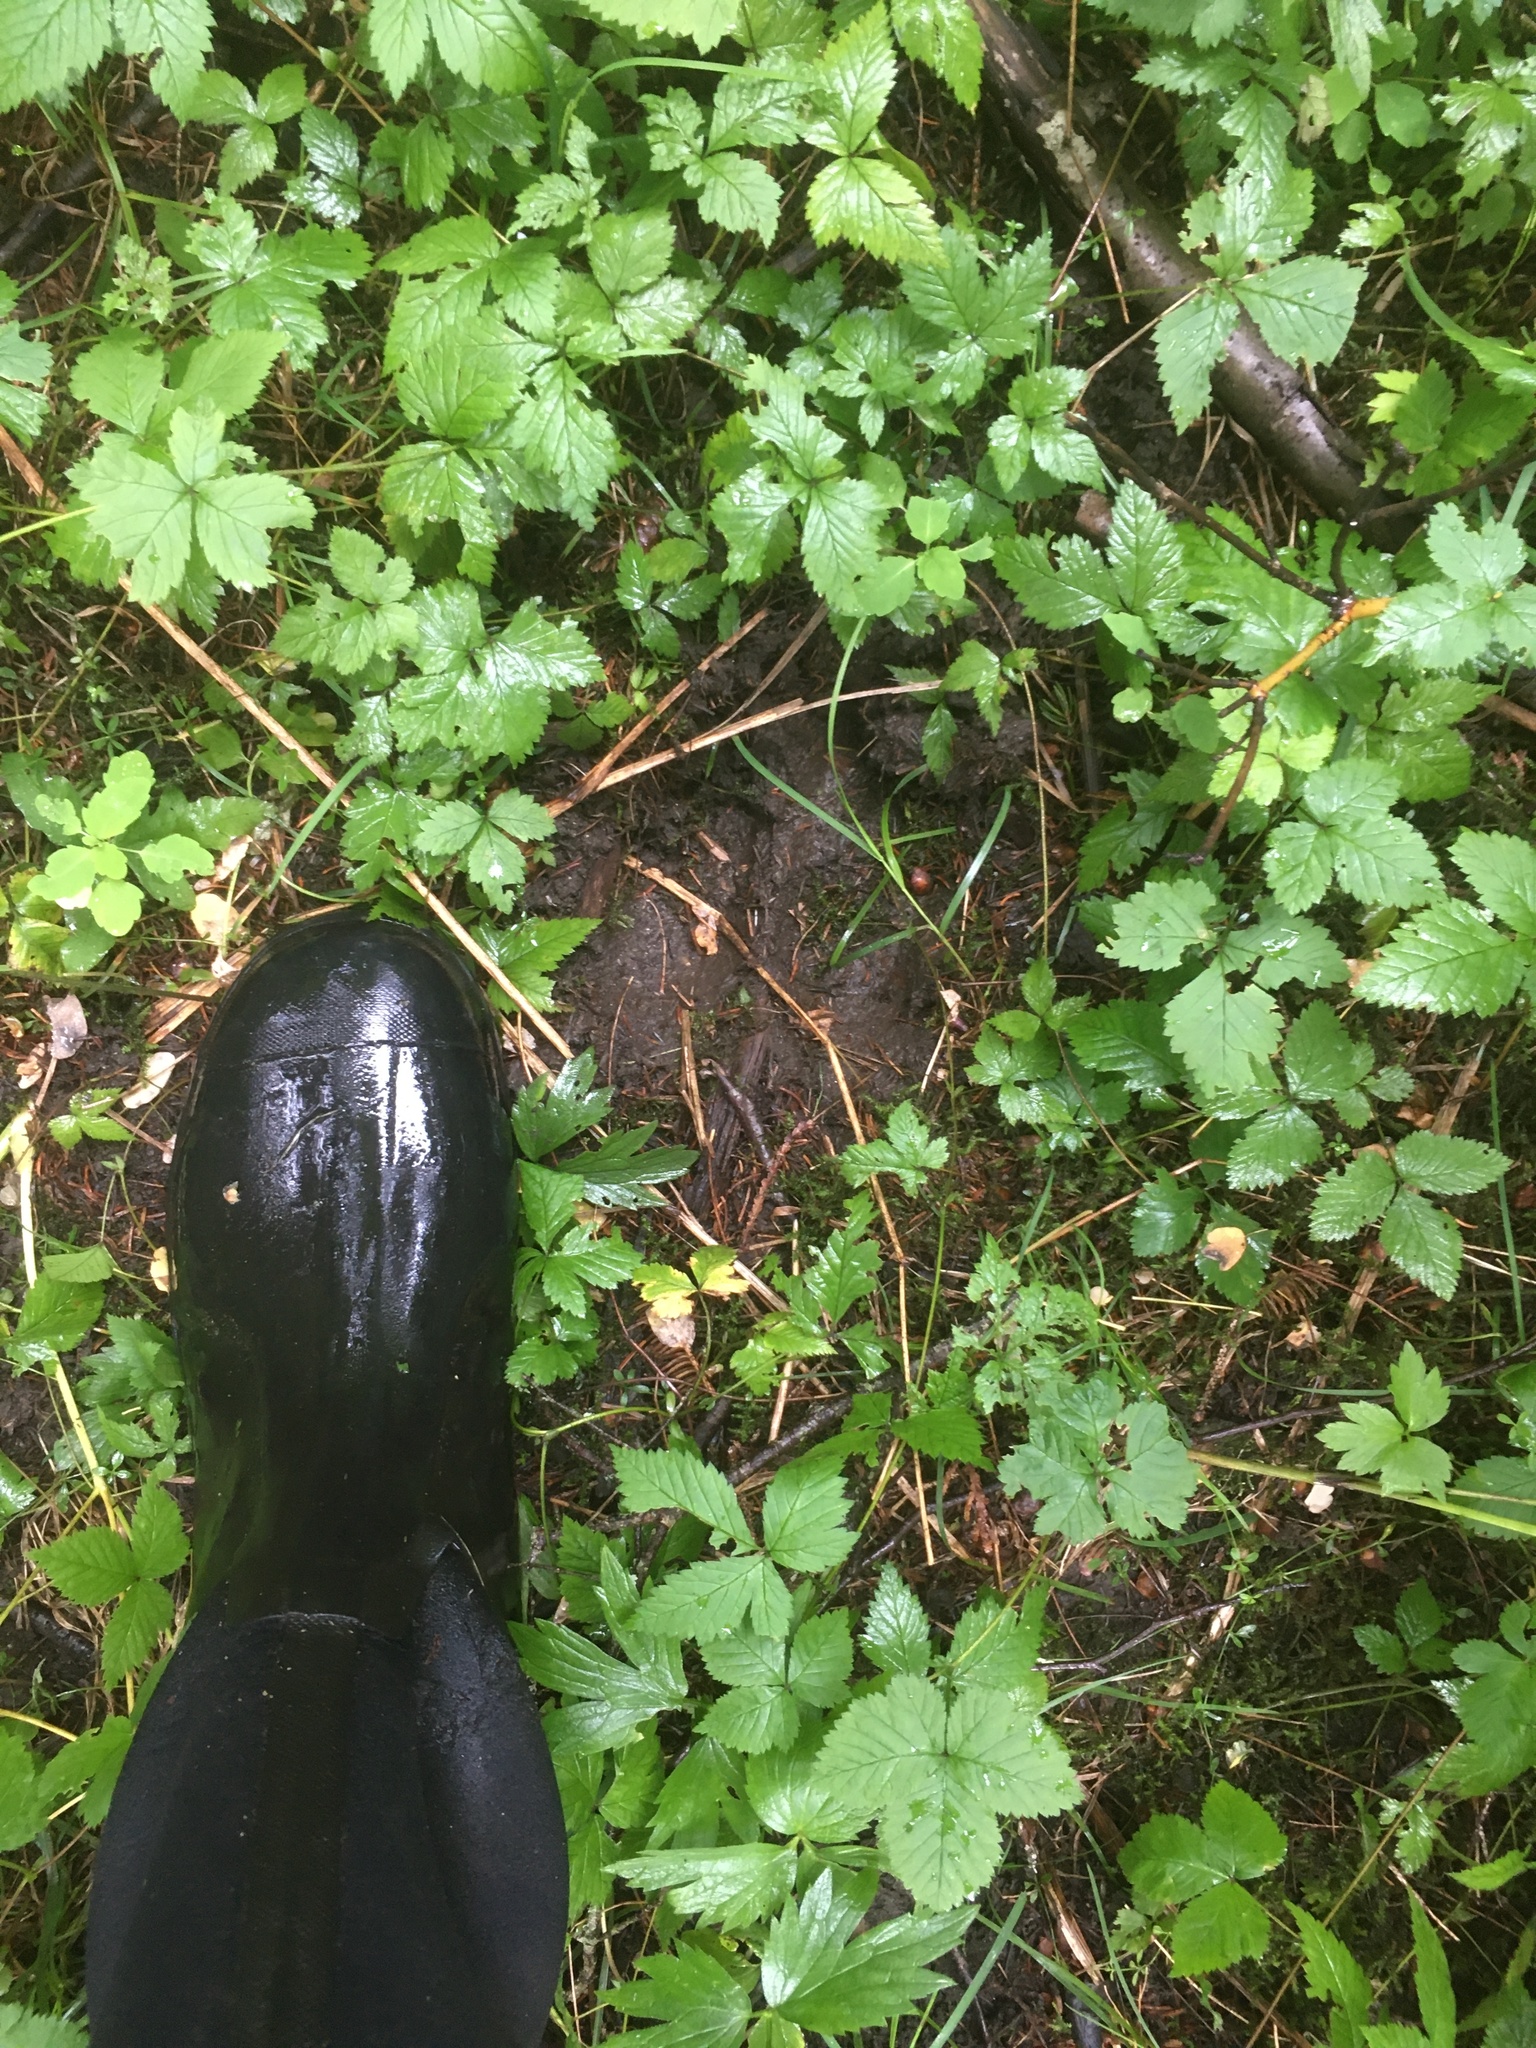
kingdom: Animalia
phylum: Chordata
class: Mammalia
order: Artiodactyla
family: Cervidae
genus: Alces
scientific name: Alces alces
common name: Moose
